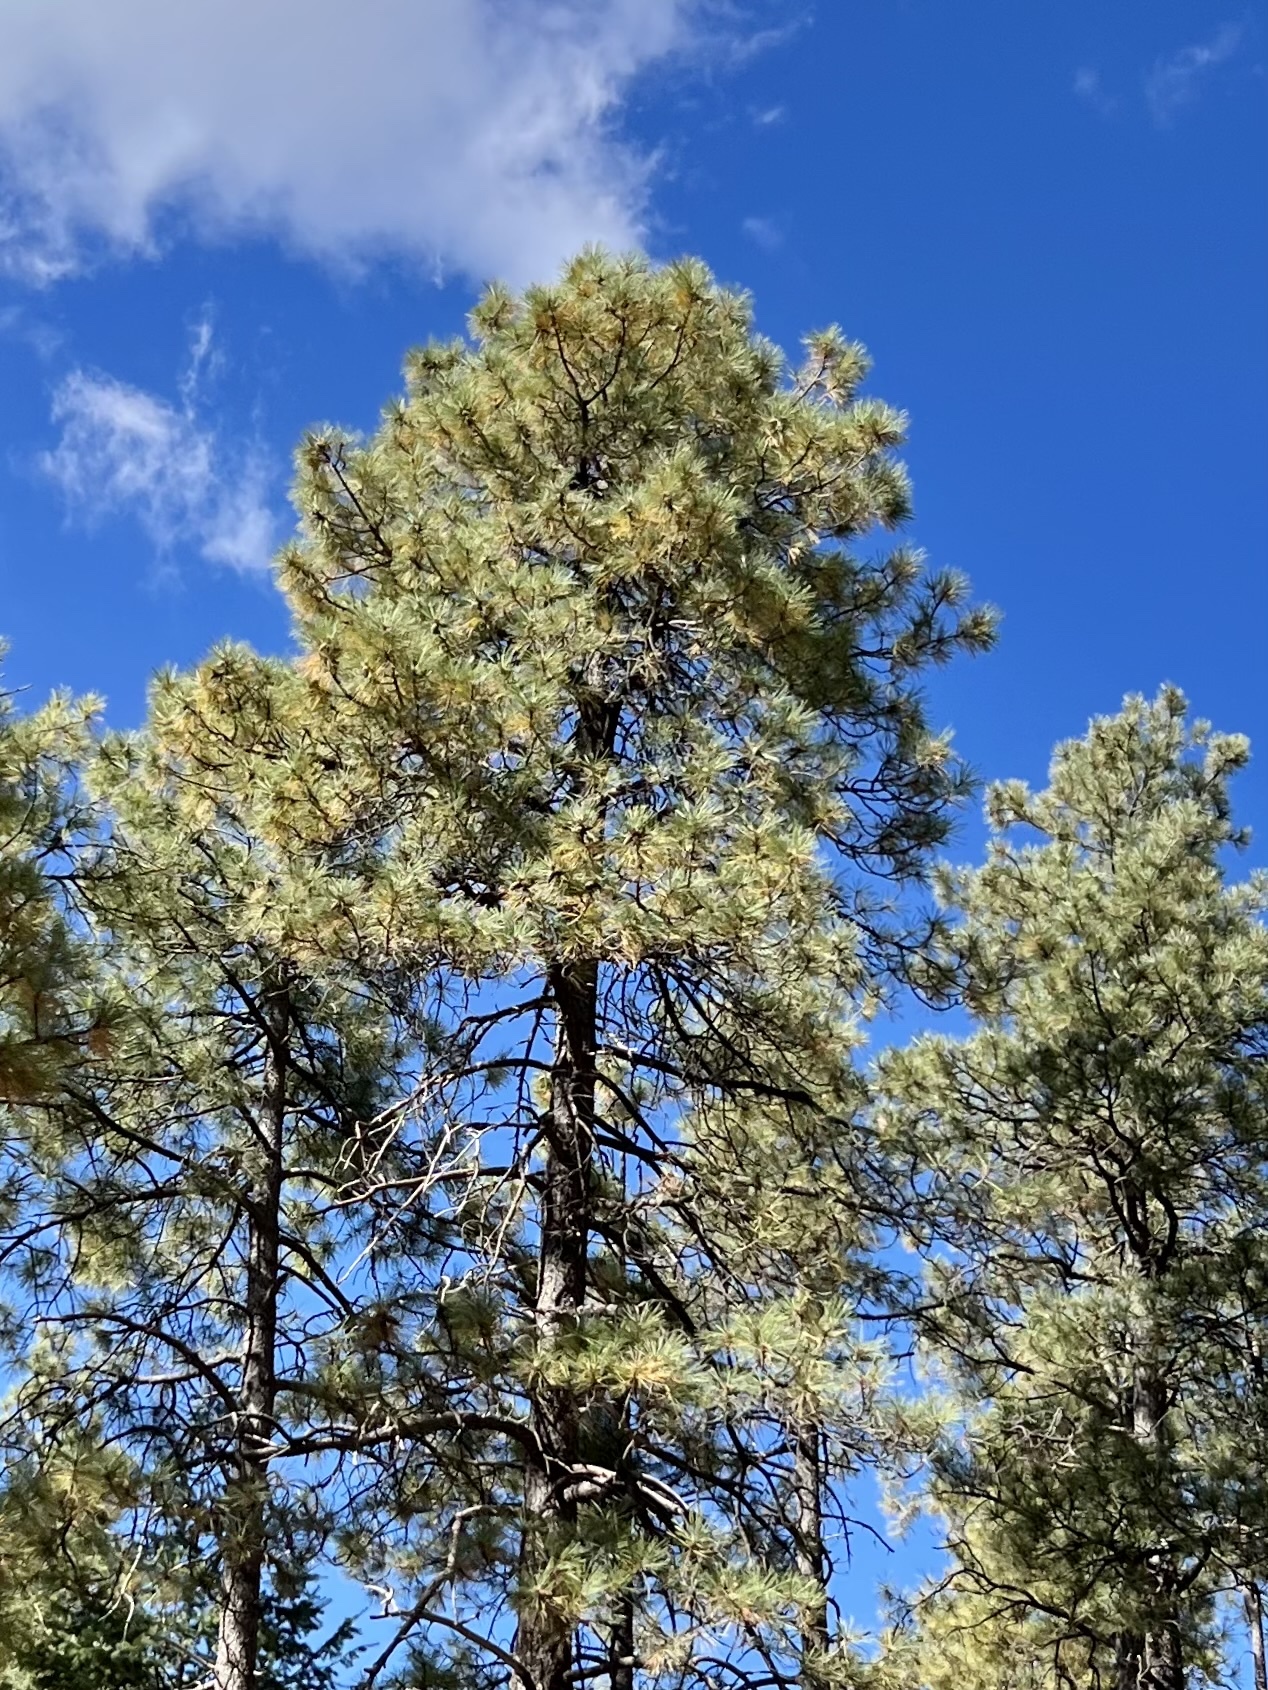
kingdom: Plantae
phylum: Tracheophyta
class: Pinopsida
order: Pinales
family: Pinaceae
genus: Pinus
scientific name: Pinus ponderosa
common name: Western yellow-pine
